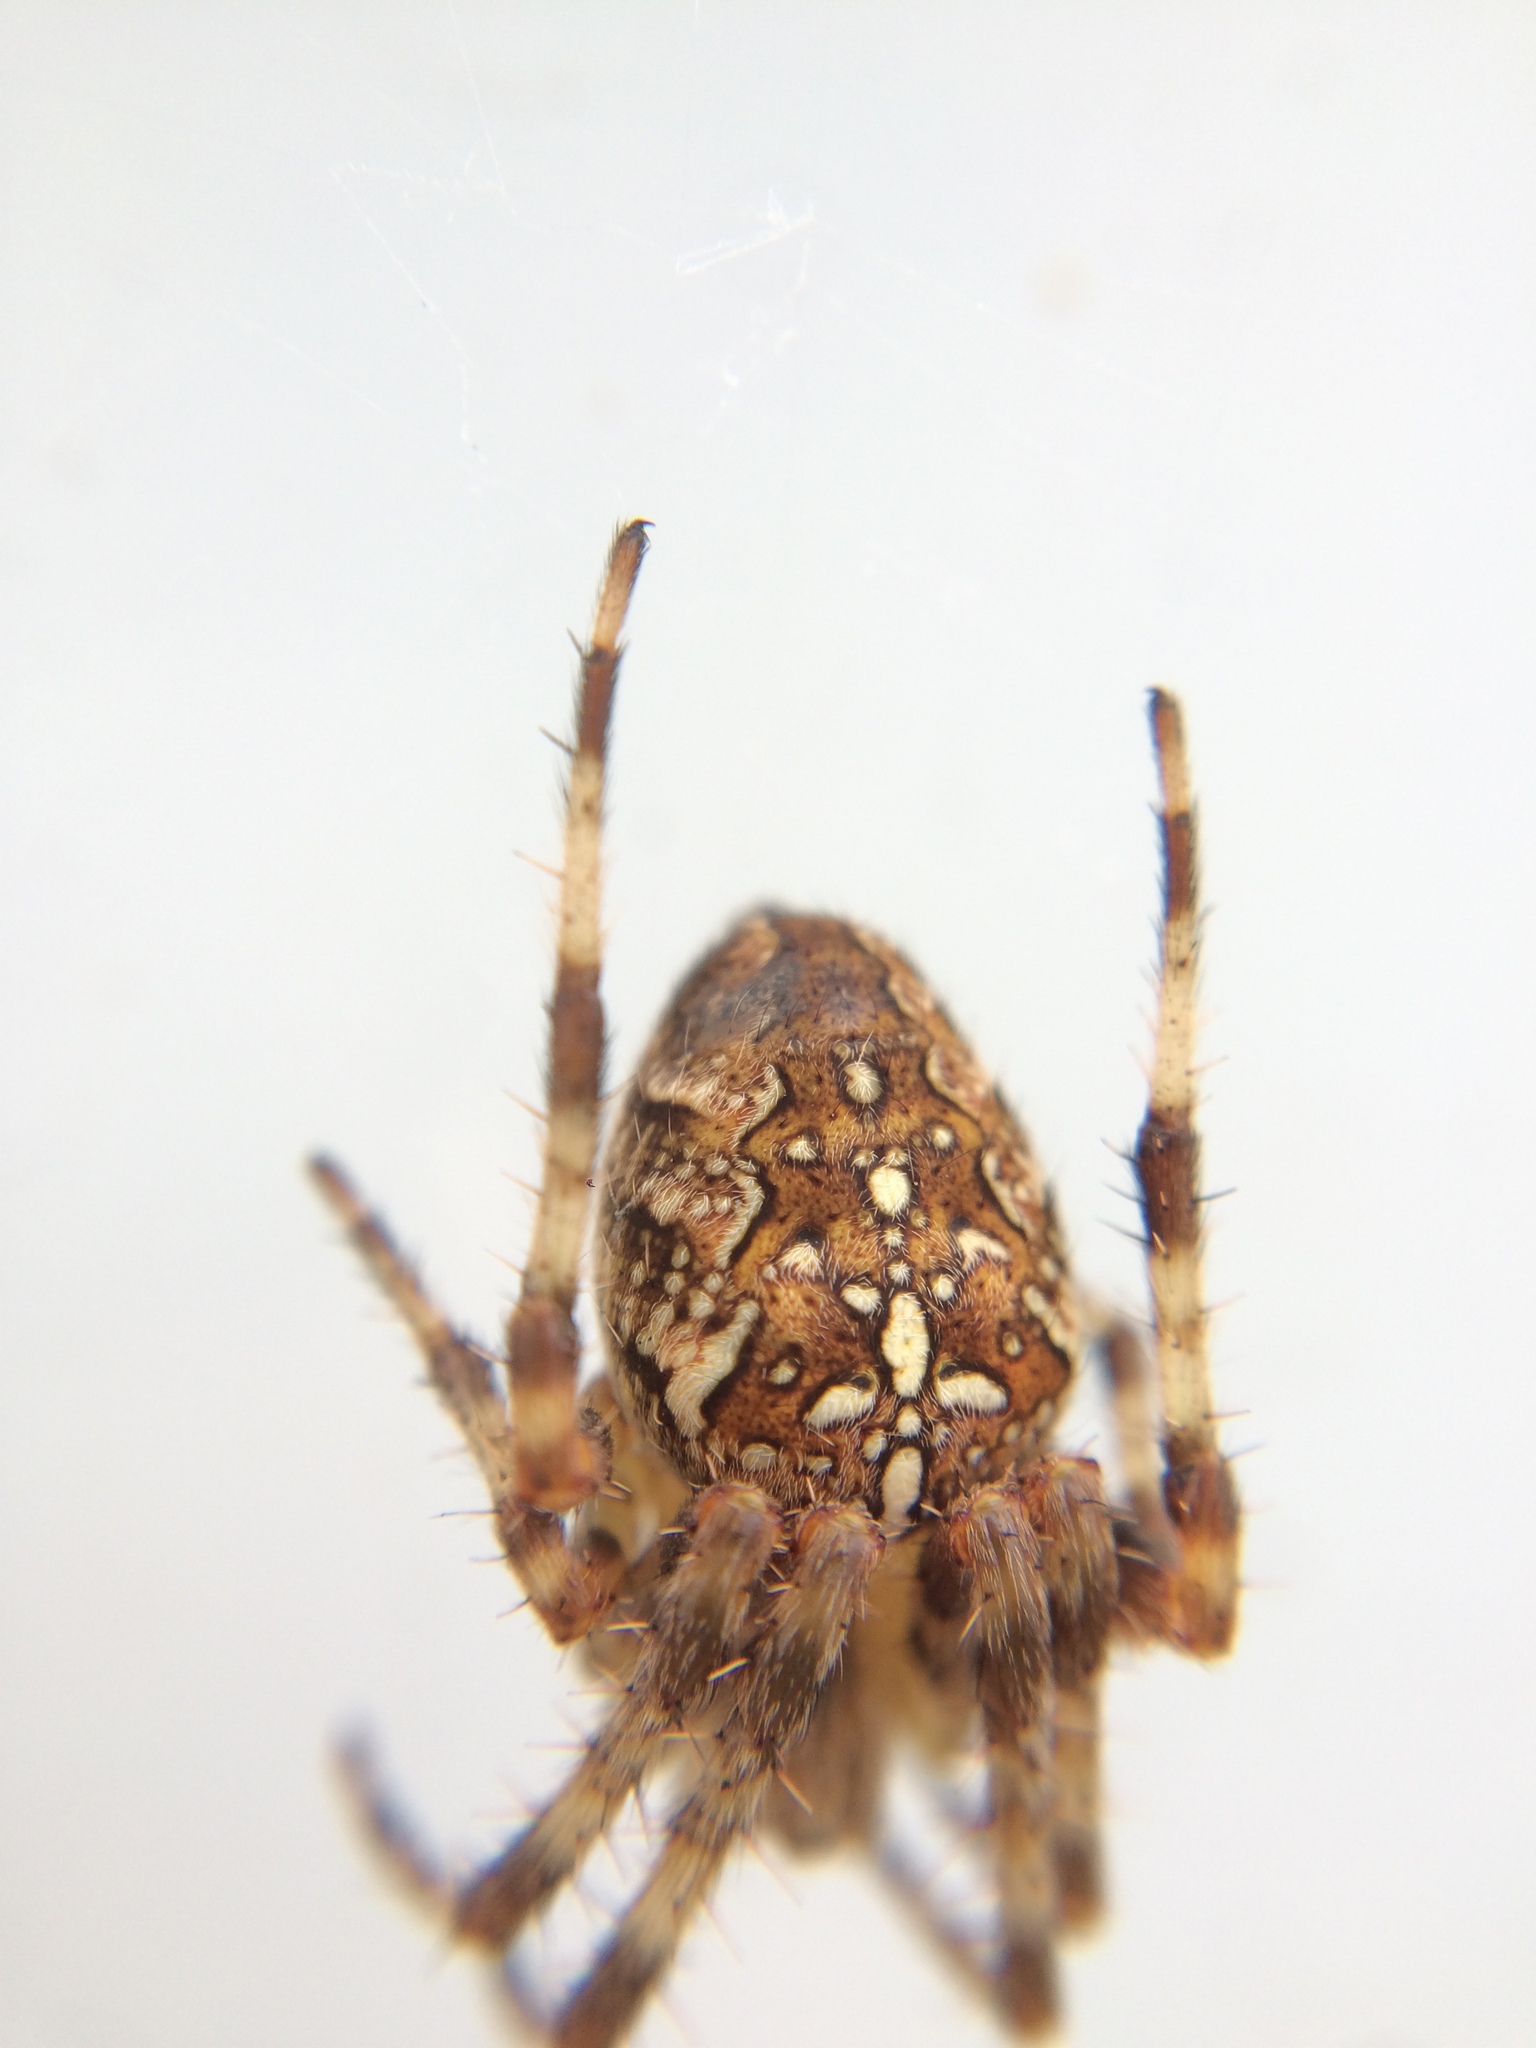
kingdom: Animalia
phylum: Arthropoda
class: Arachnida
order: Araneae
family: Araneidae
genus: Araneus
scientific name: Araneus diadematus
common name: Cross orbweaver
